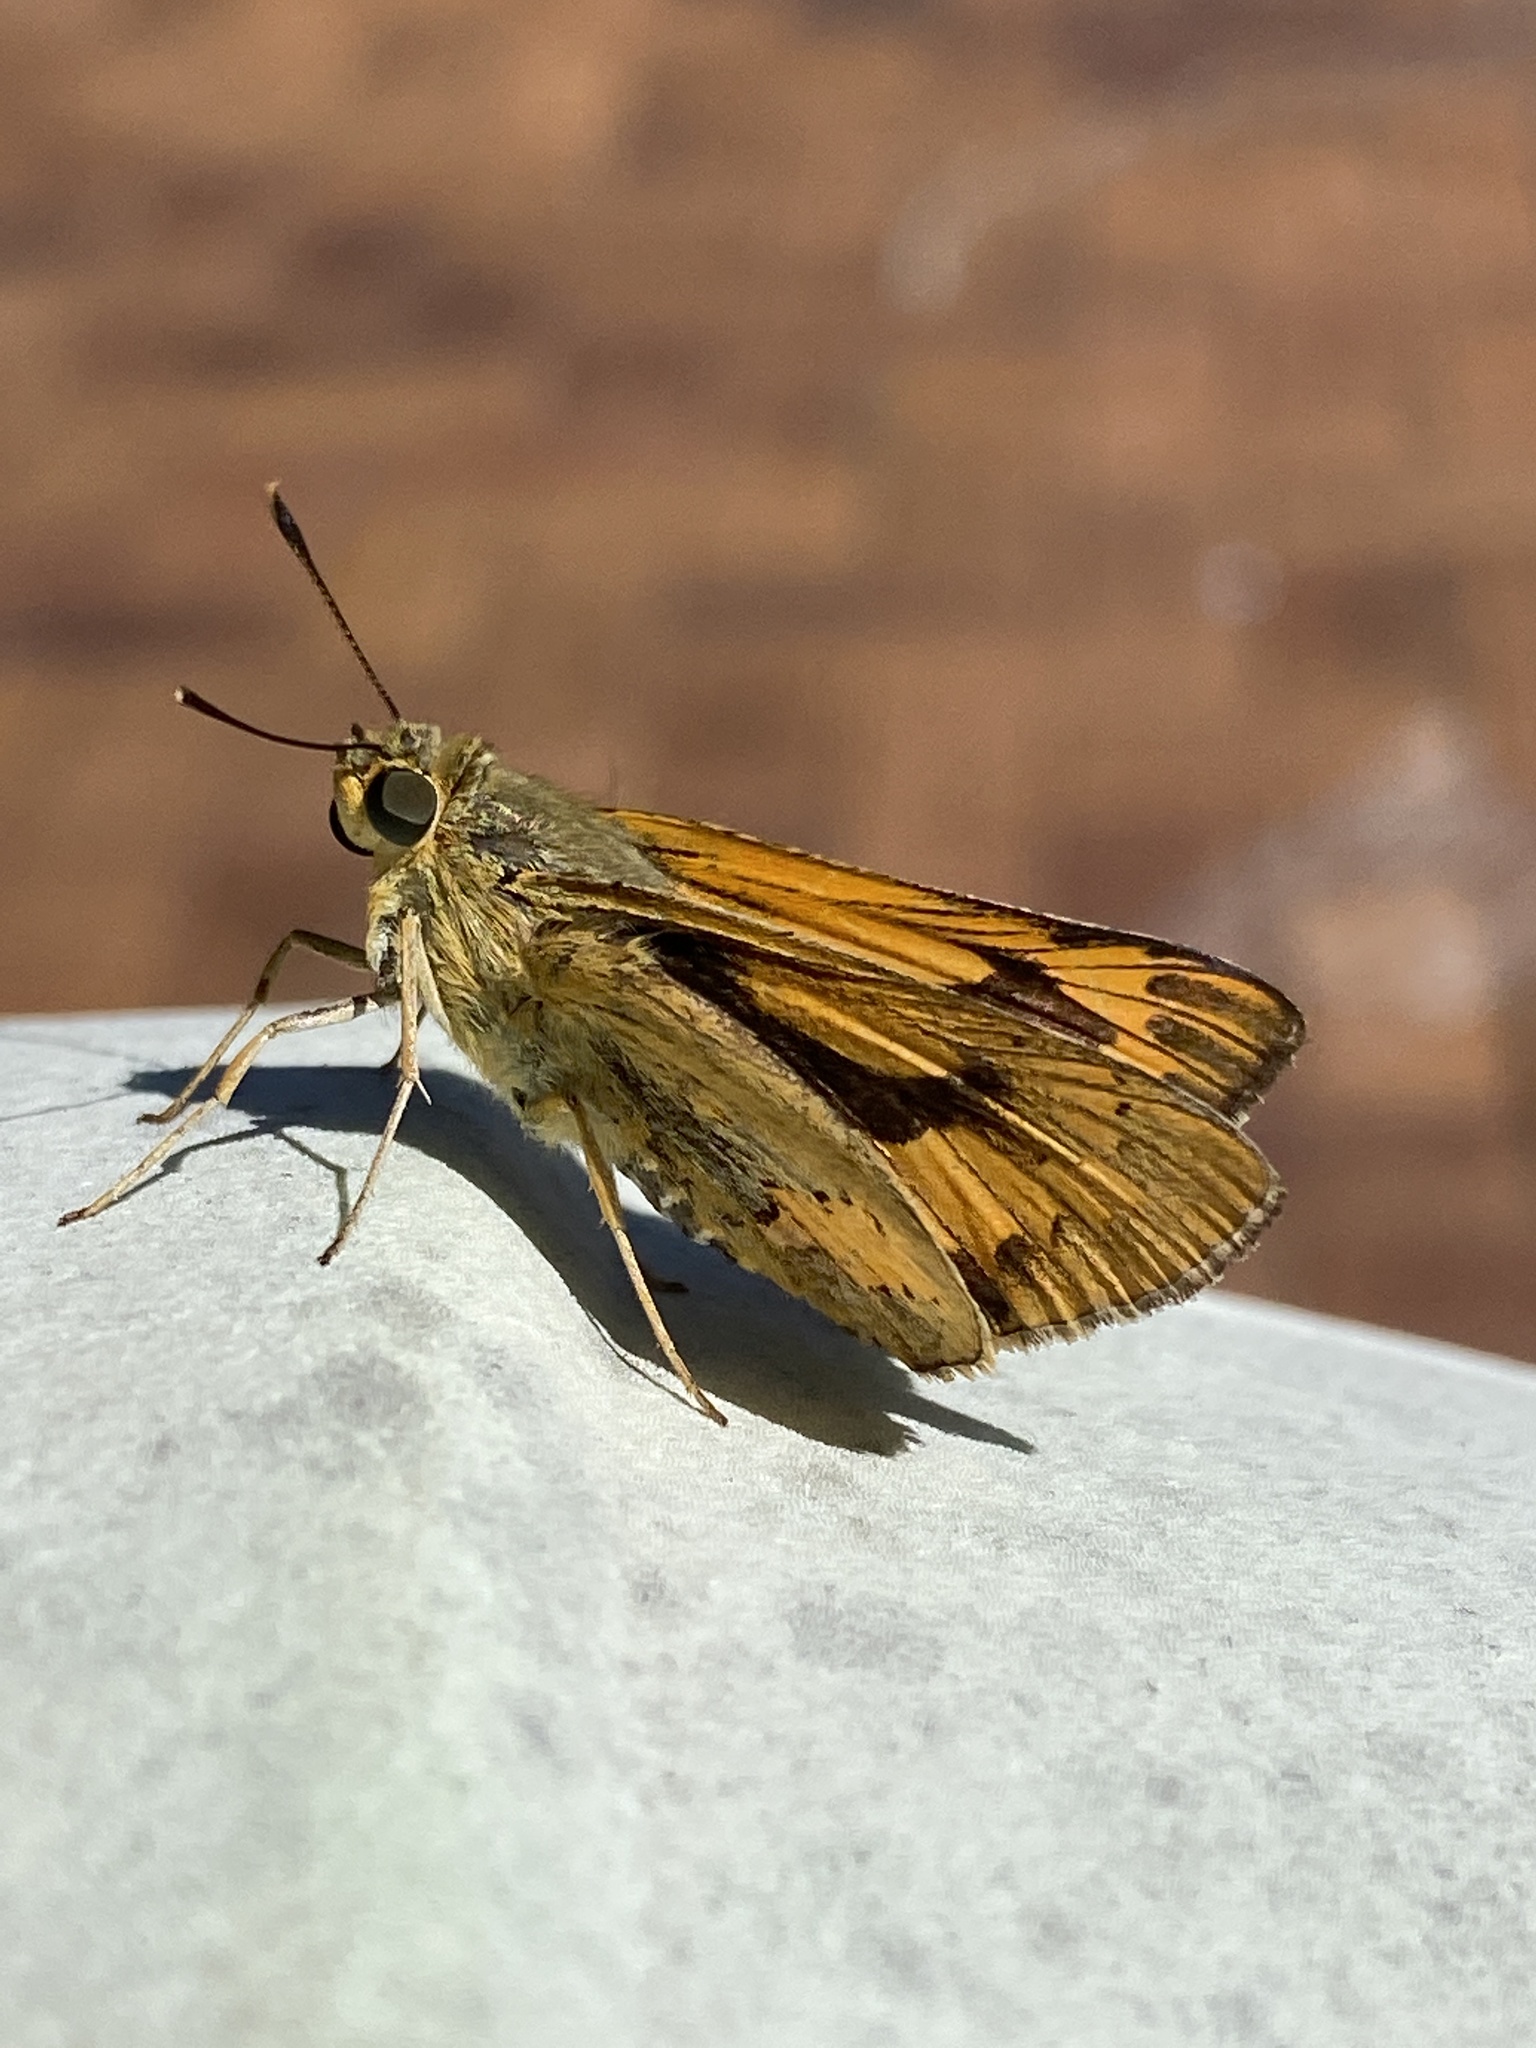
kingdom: Animalia
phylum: Arthropoda
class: Insecta
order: Lepidoptera
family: Hesperiidae
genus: Cephrenes
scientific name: Cephrenes trichopepla
